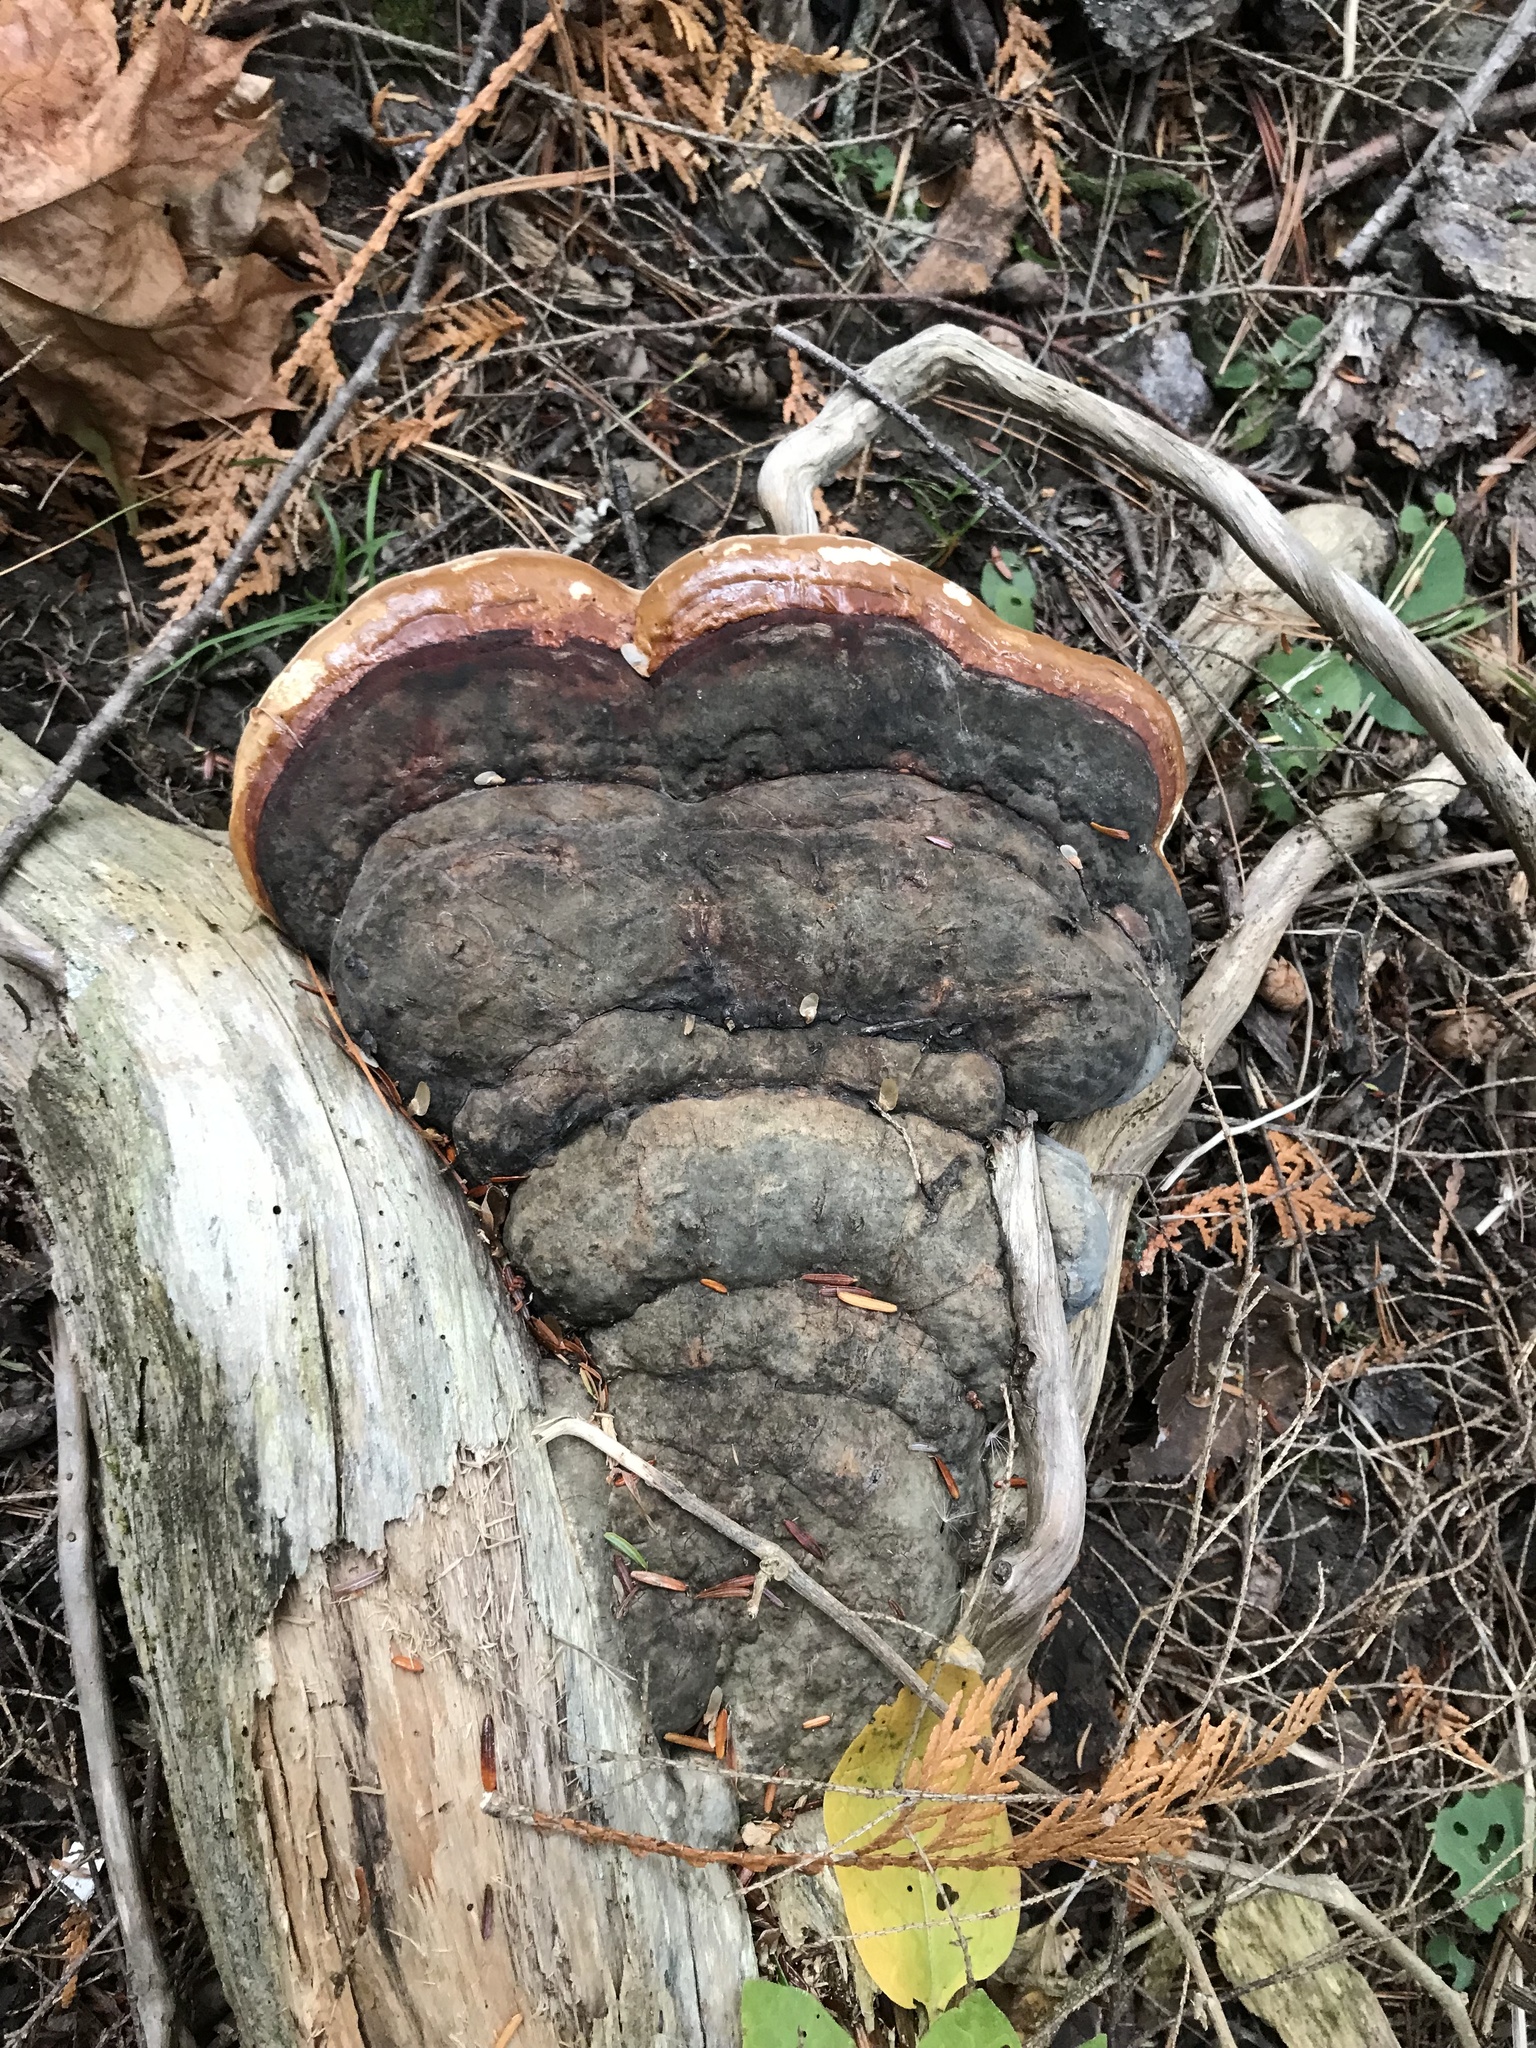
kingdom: Fungi
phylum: Basidiomycota
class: Agaricomycetes
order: Polyporales
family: Fomitopsidaceae
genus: Fomitopsis
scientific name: Fomitopsis mounceae
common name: Northern red belt
